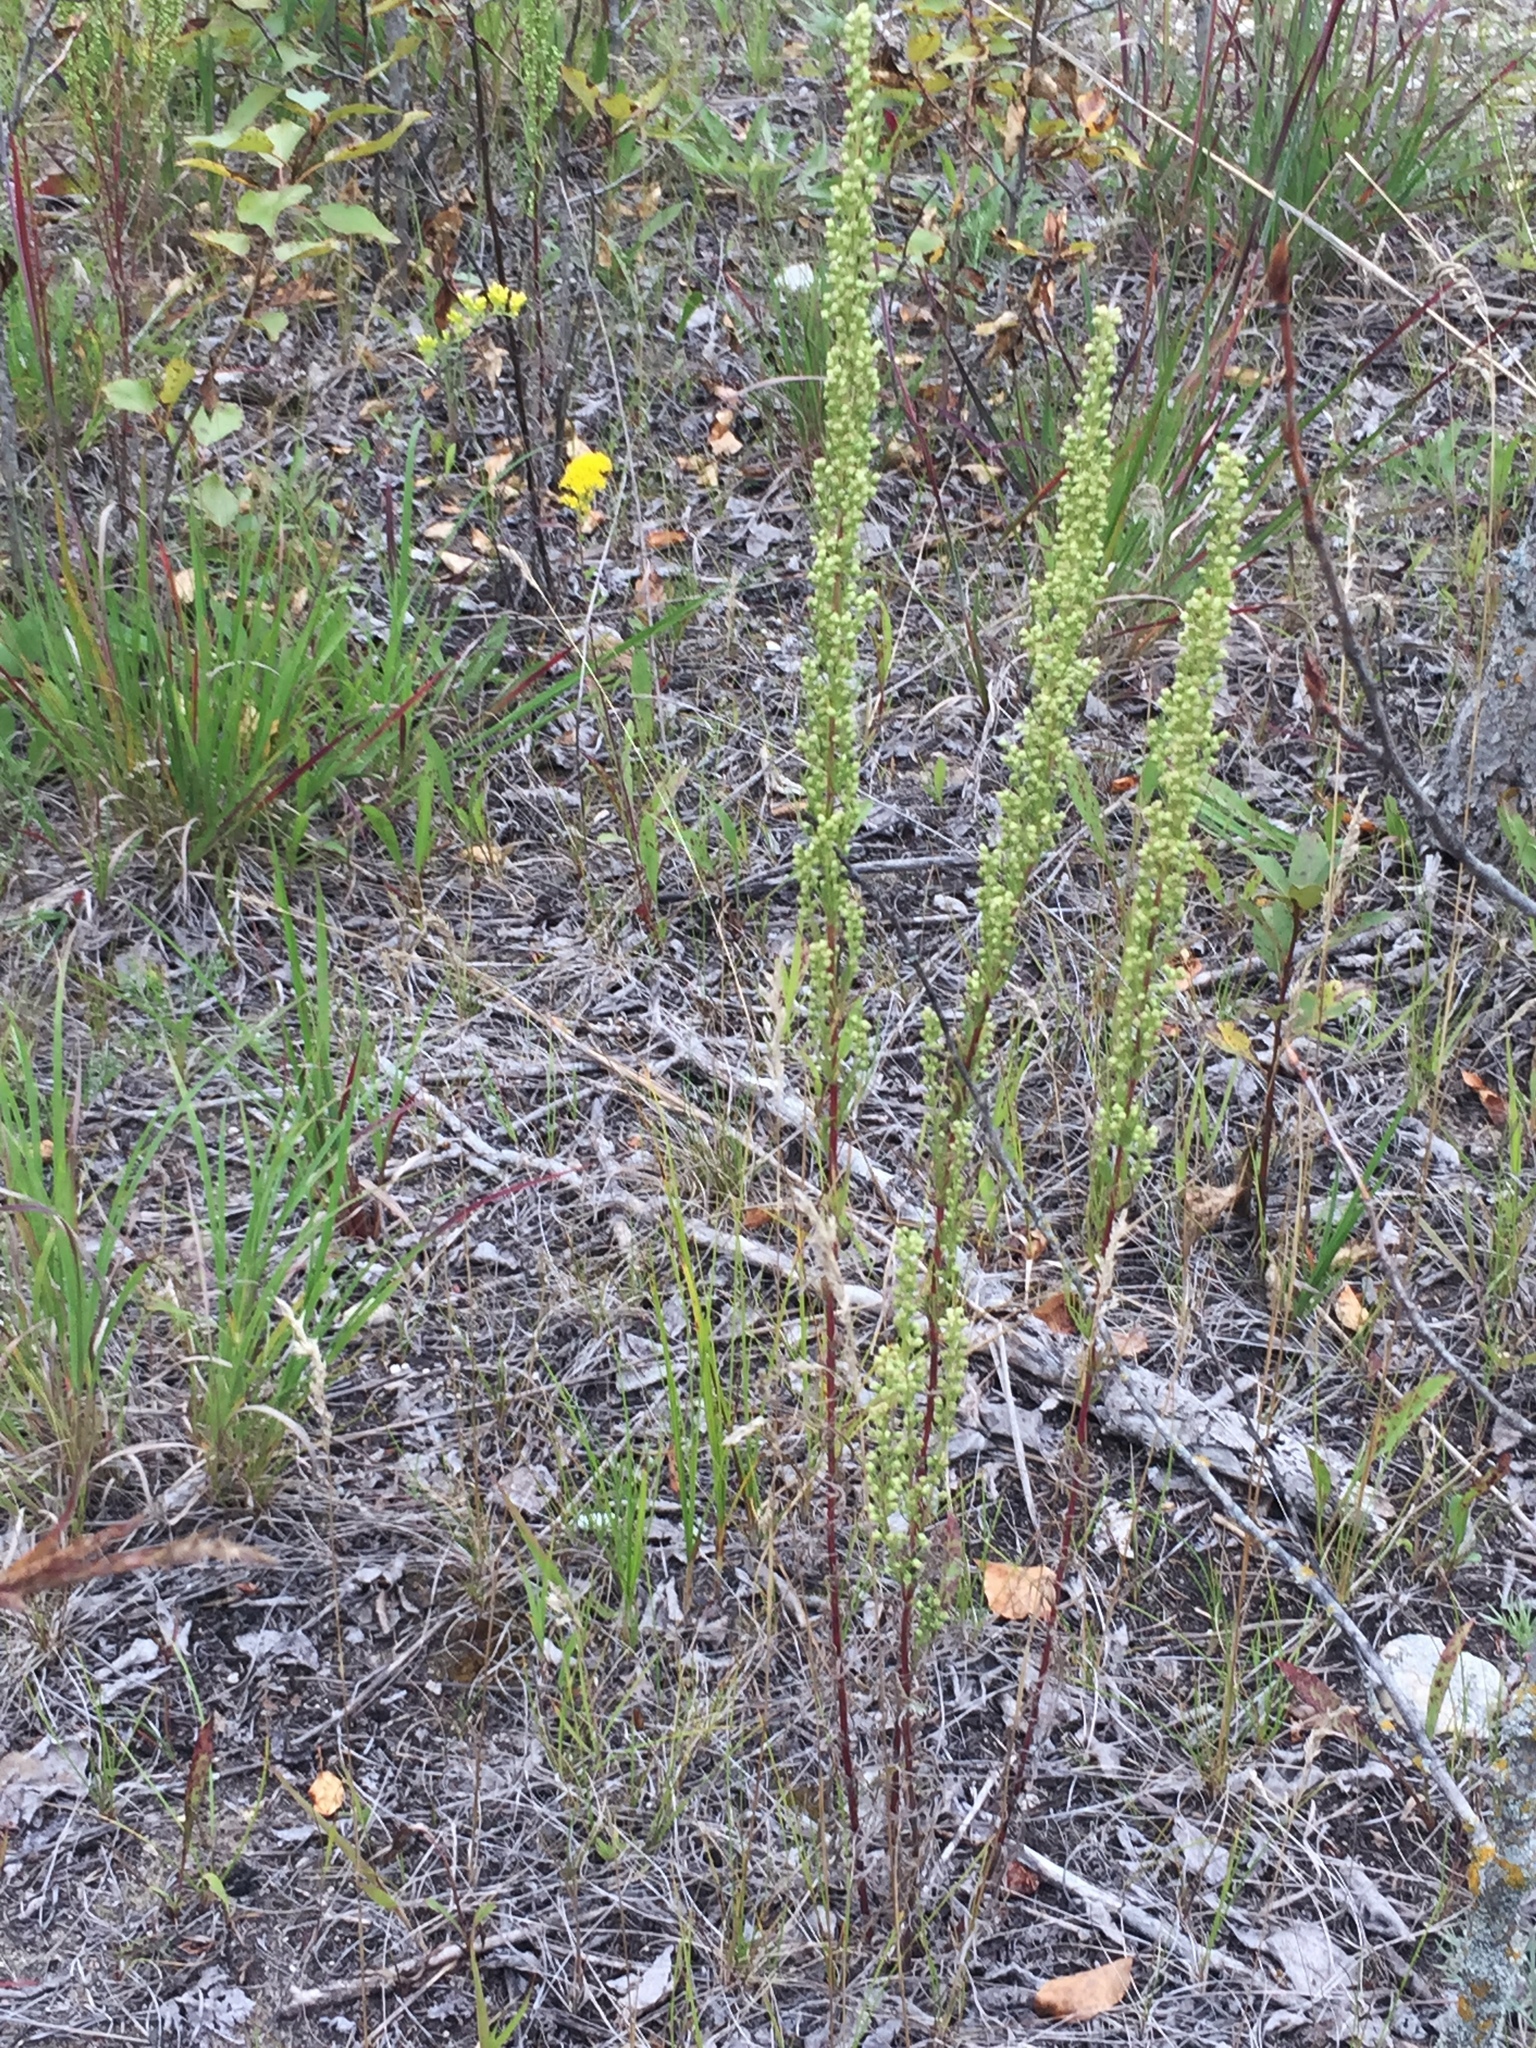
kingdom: Plantae
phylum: Tracheophyta
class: Magnoliopsida
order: Asterales
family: Asteraceae
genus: Artemisia
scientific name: Artemisia campestris
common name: Field wormwood
